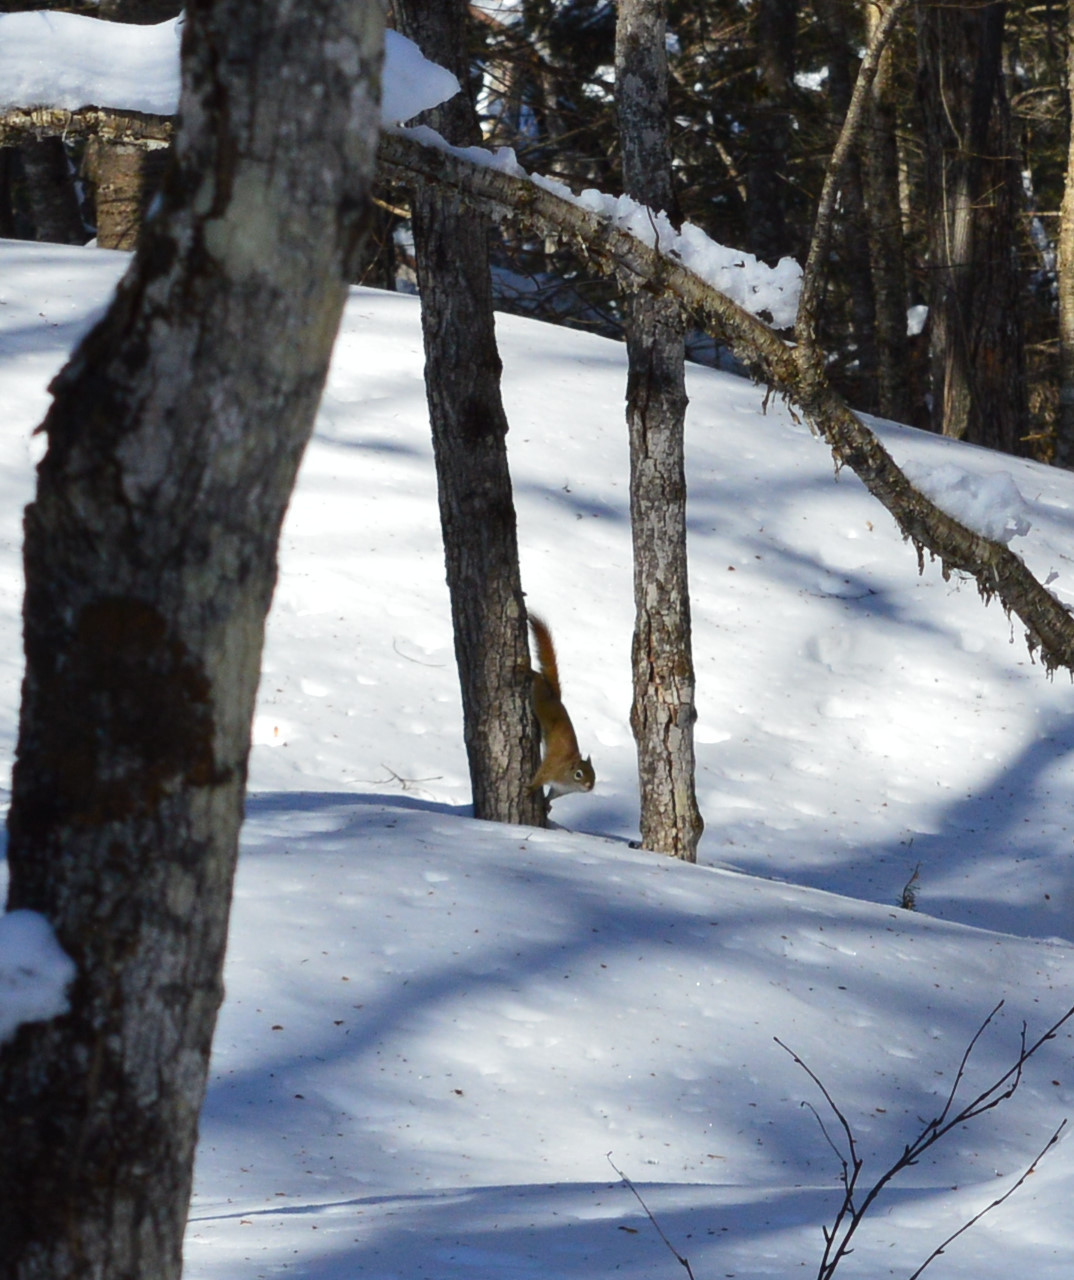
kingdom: Animalia
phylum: Chordata
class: Mammalia
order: Rodentia
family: Sciuridae
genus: Tamiasciurus
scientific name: Tamiasciurus hudsonicus
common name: Red squirrel
